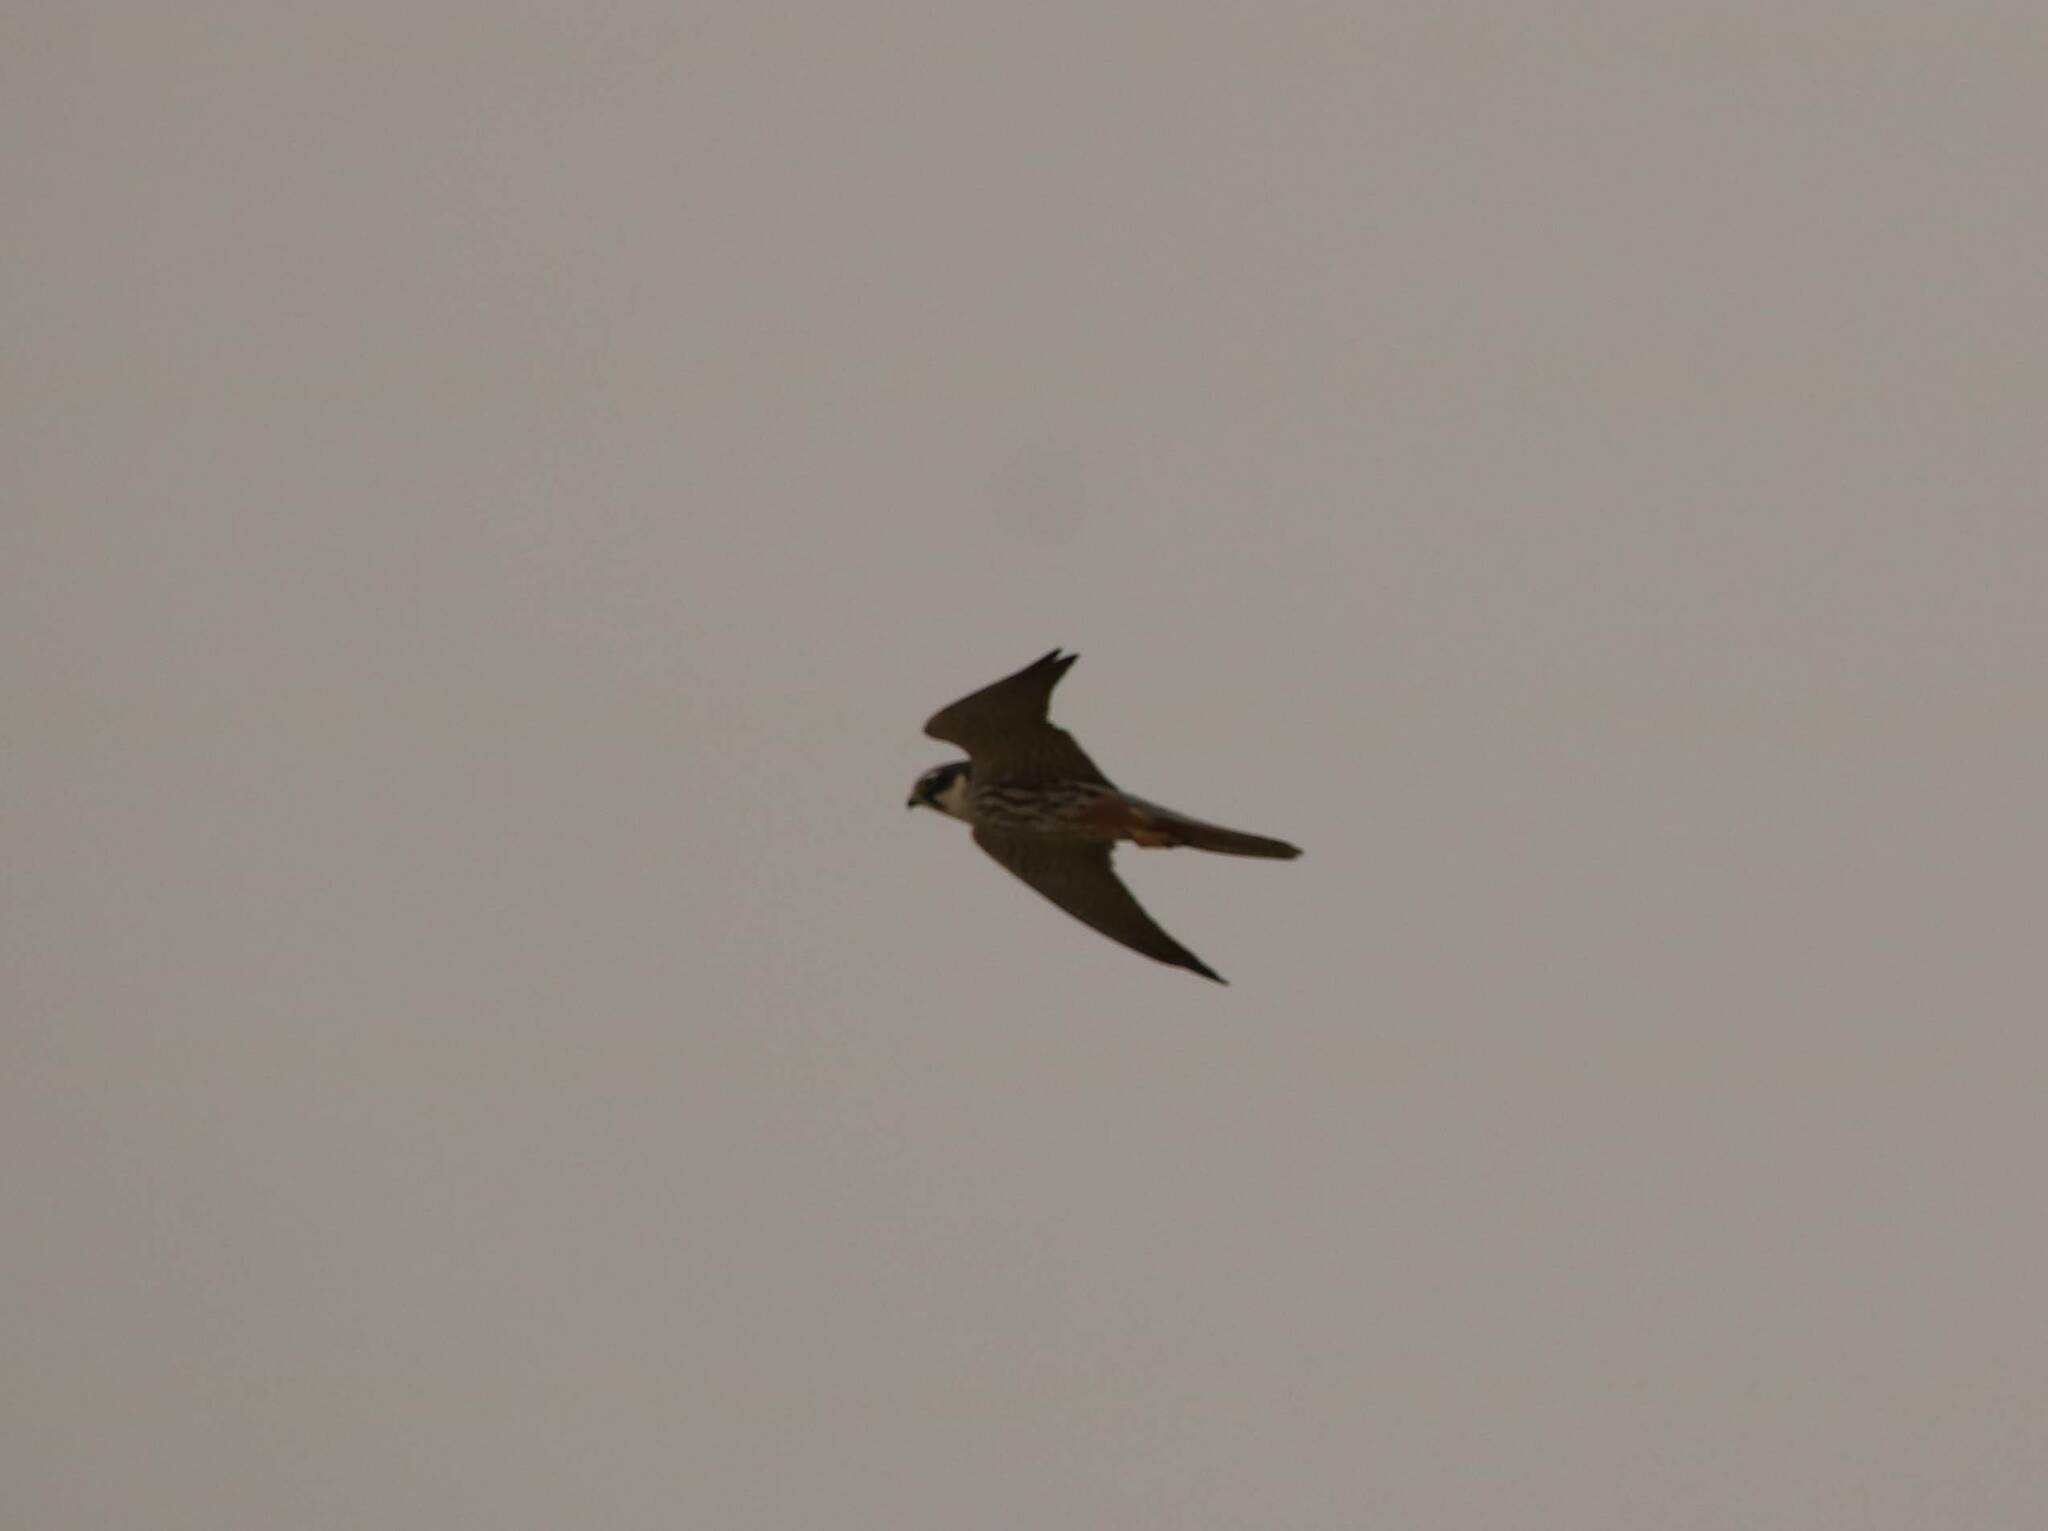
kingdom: Animalia
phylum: Chordata
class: Aves
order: Falconiformes
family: Falconidae
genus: Falco
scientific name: Falco subbuteo
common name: Eurasian hobby
